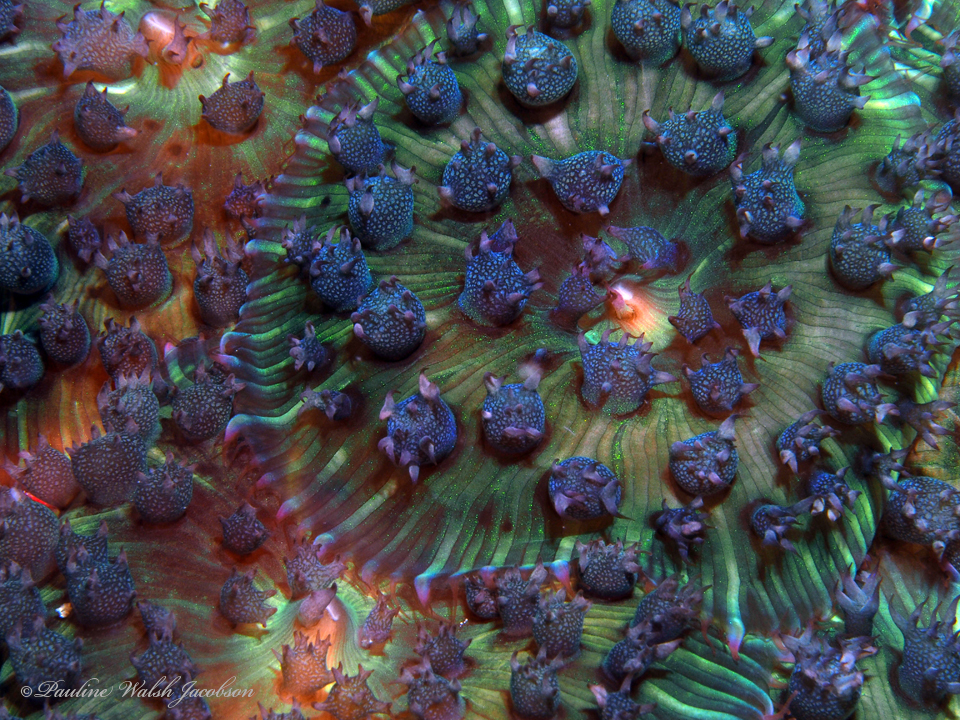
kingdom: Animalia
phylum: Cnidaria
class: Anthozoa
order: Corallimorpharia
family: Discosomidae
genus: Rhodactis
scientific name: Rhodactis osculifera
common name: Warty corallimorph
